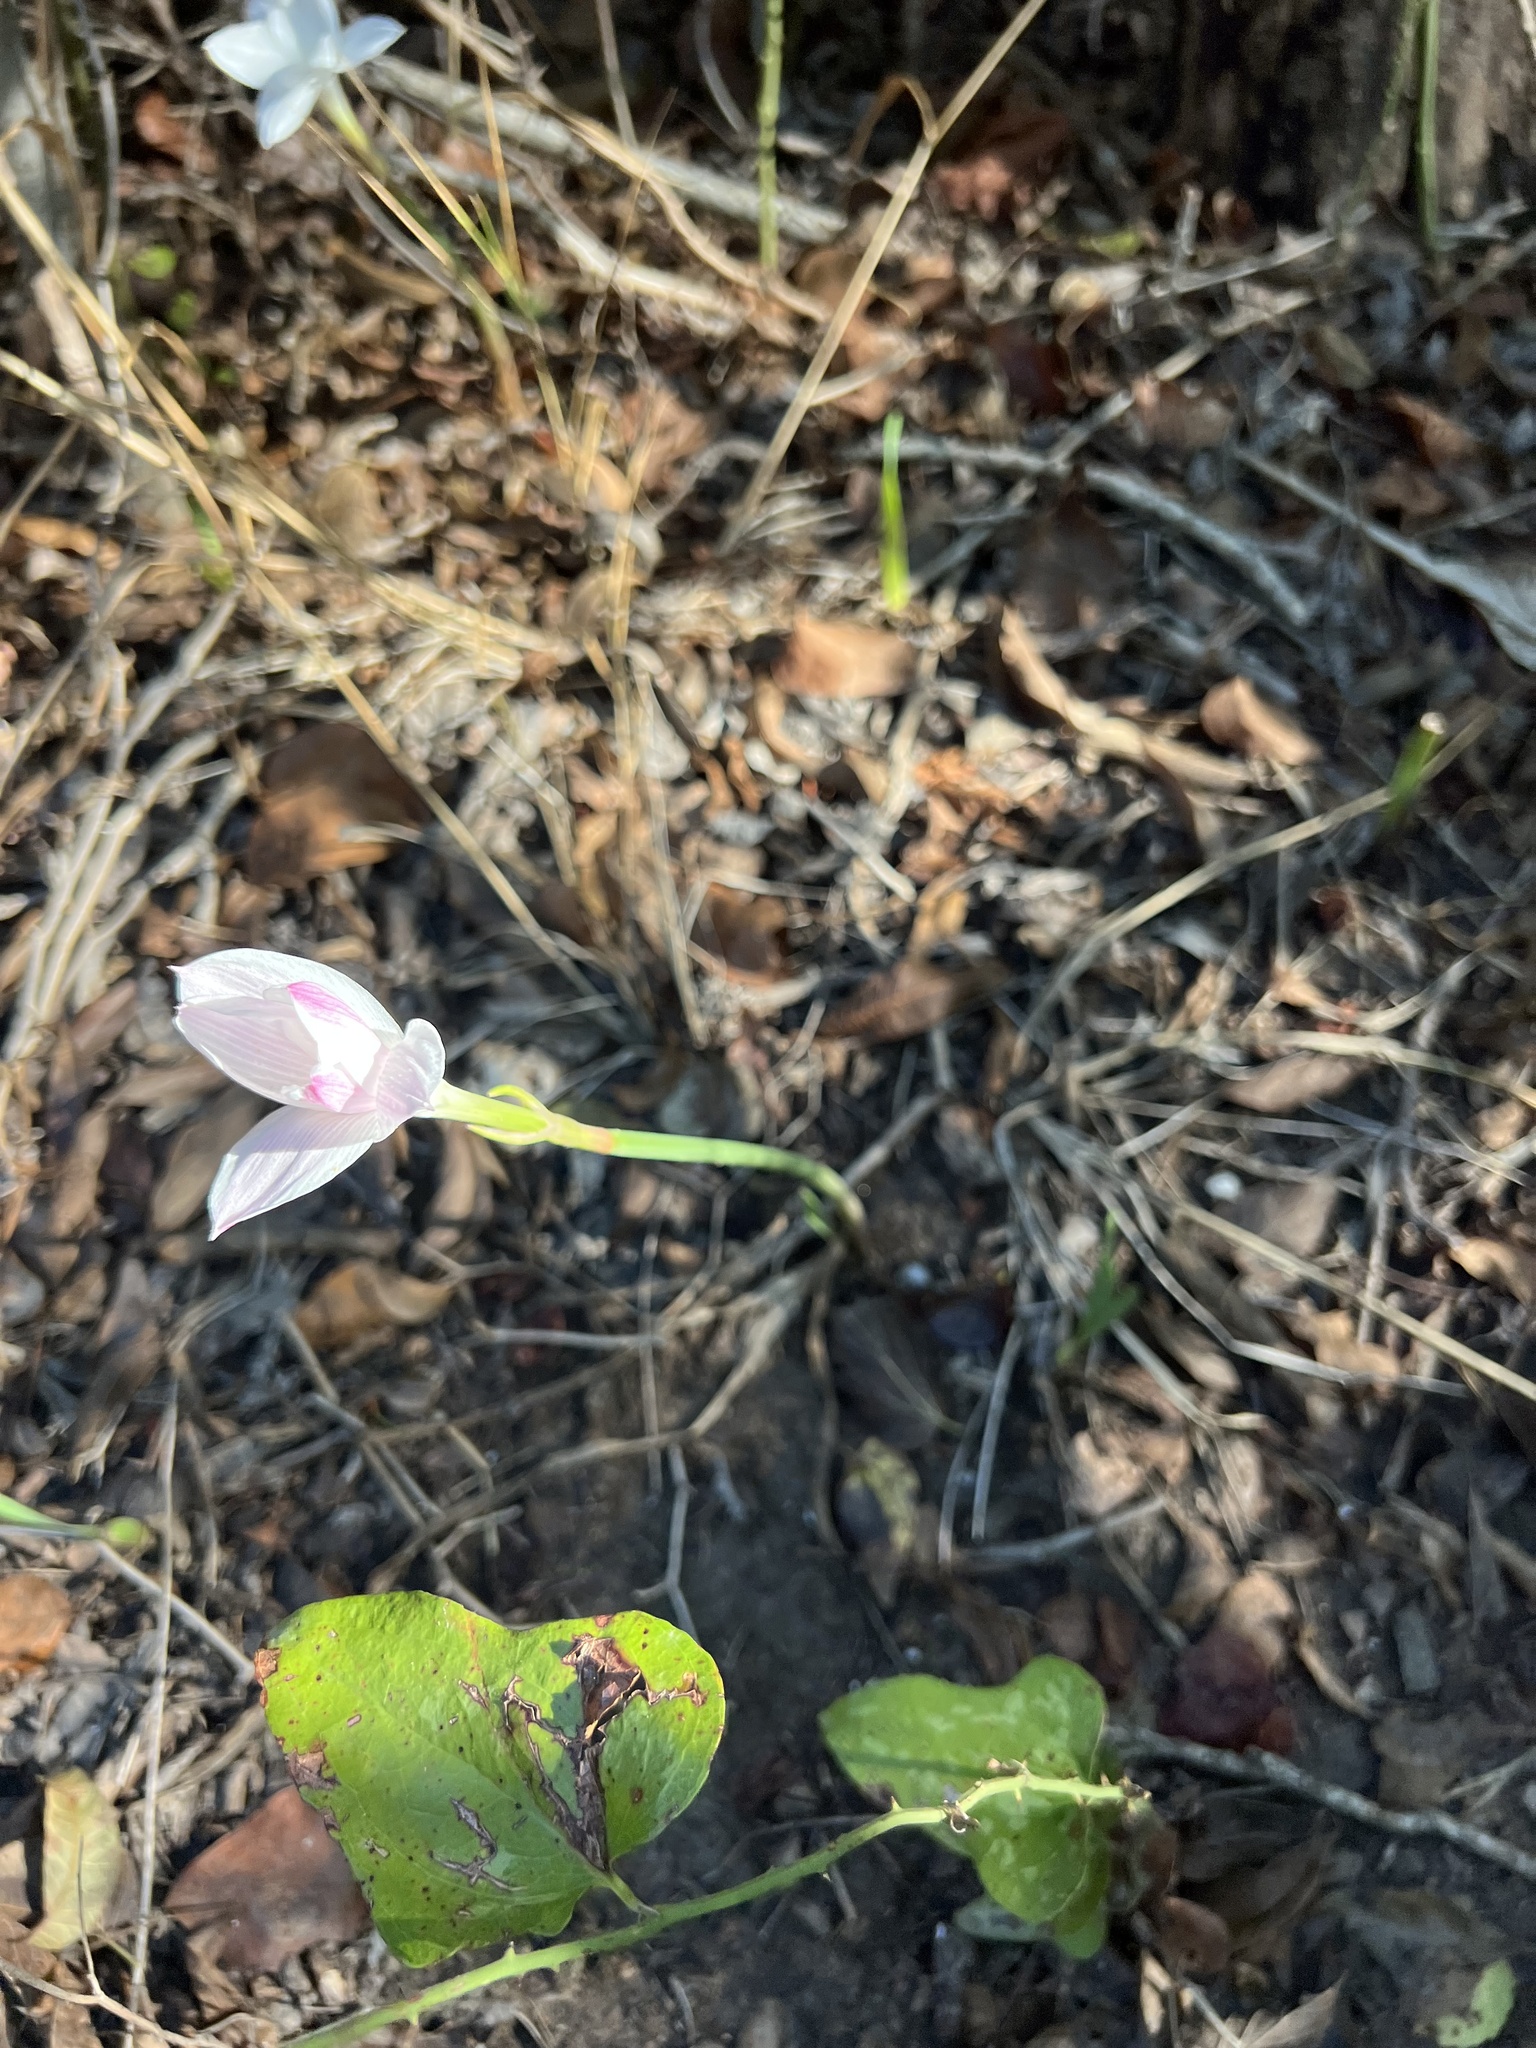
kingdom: Plantae
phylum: Tracheophyta
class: Liliopsida
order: Asparagales
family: Amaryllidaceae
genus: Zephyranthes
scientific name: Zephyranthes drummondii
